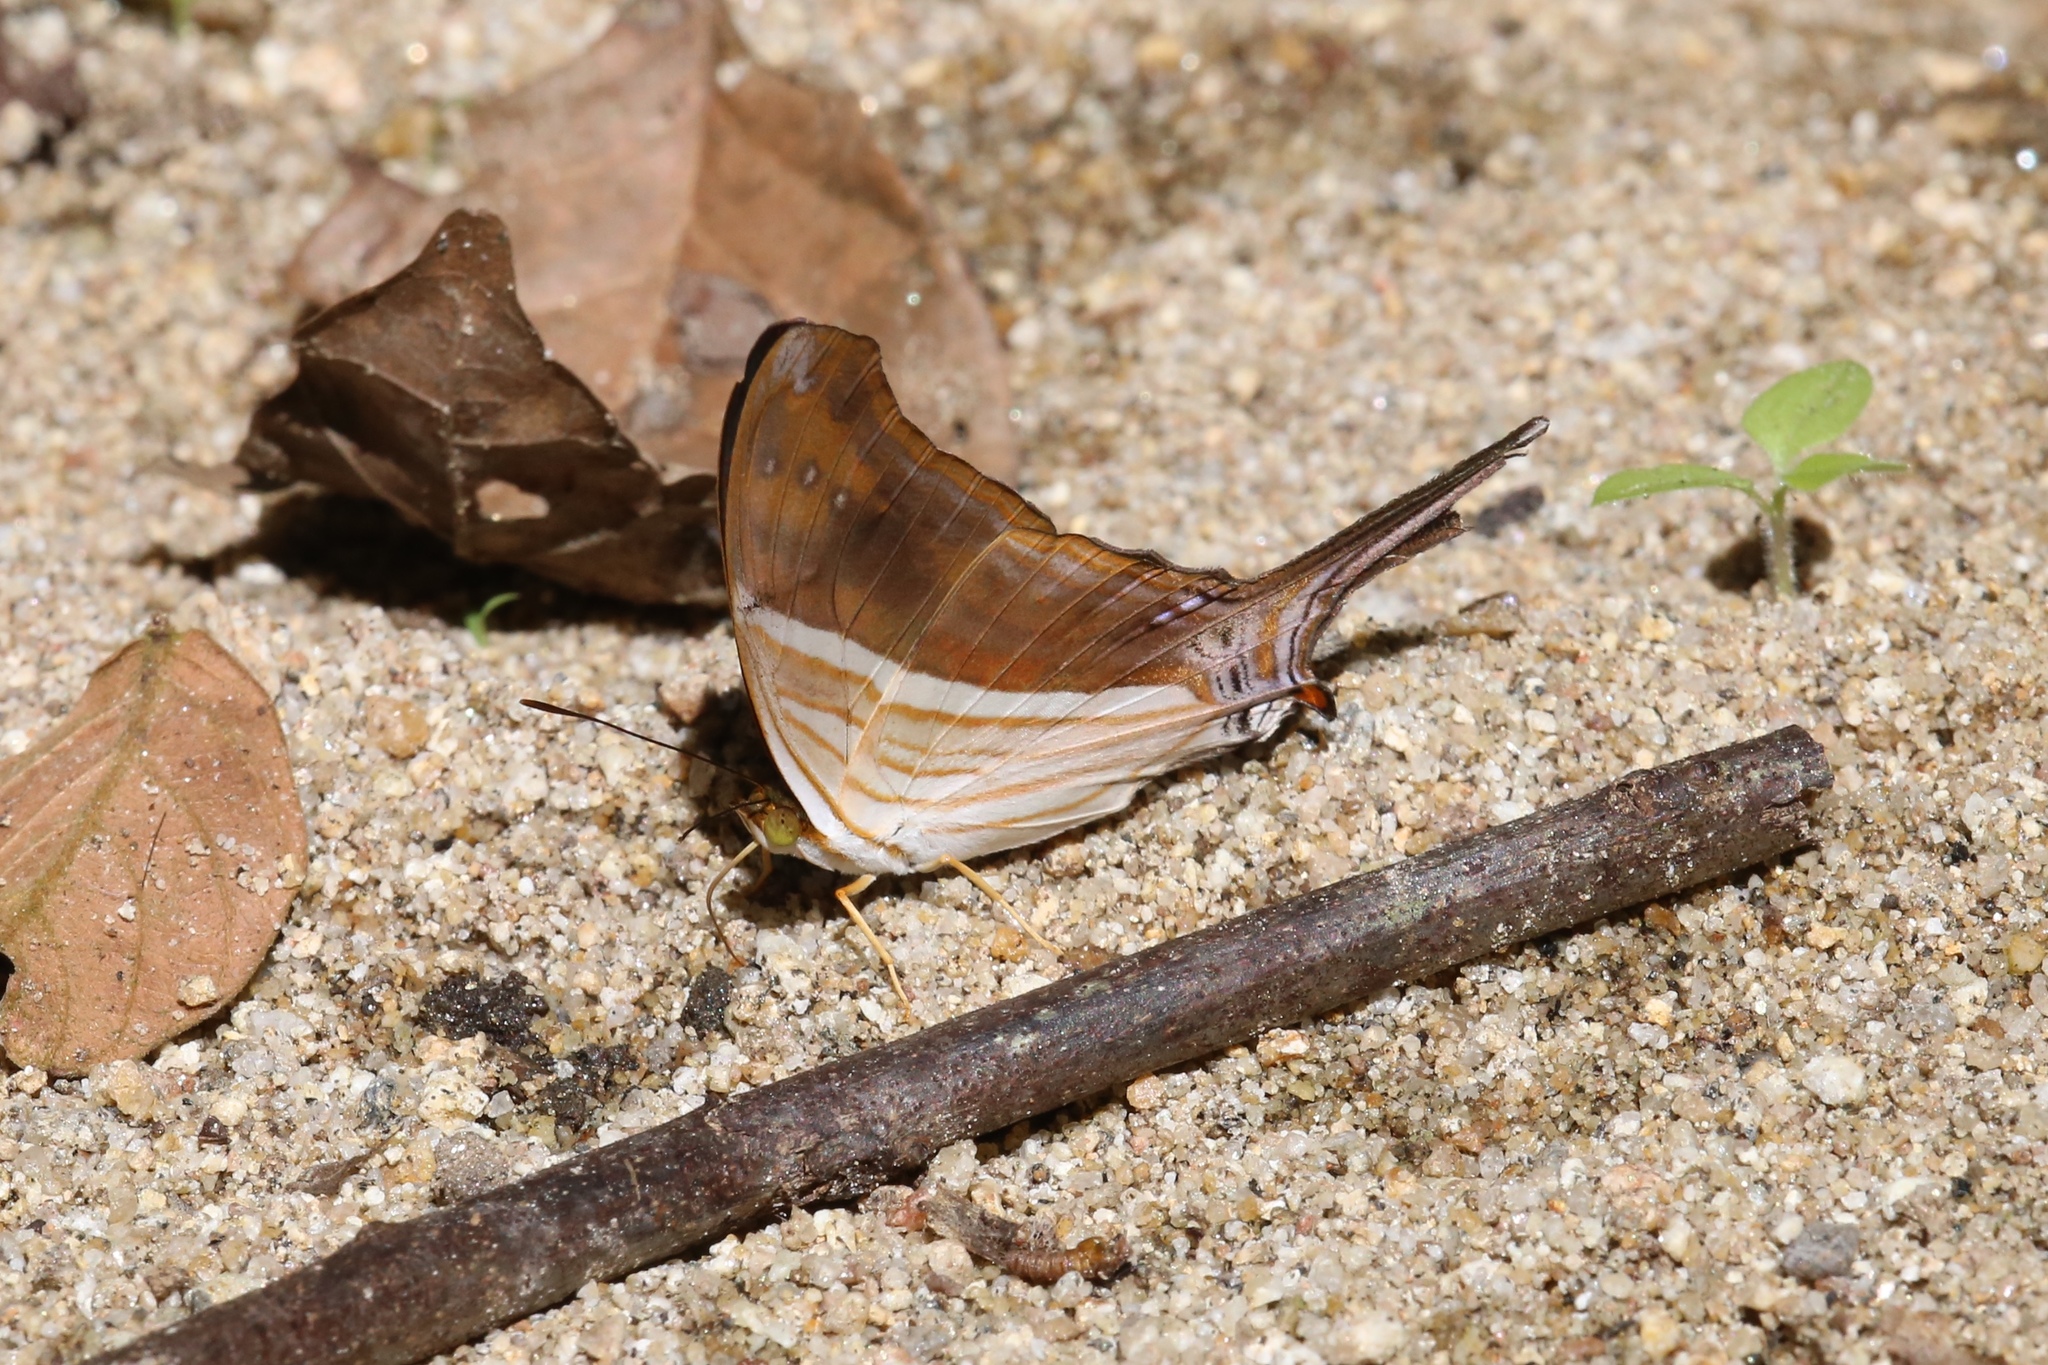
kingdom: Animalia
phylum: Arthropoda
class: Insecta
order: Lepidoptera
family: Nymphalidae
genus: Marpesia
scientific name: Marpesia chiron
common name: Many-banded daggerwing
